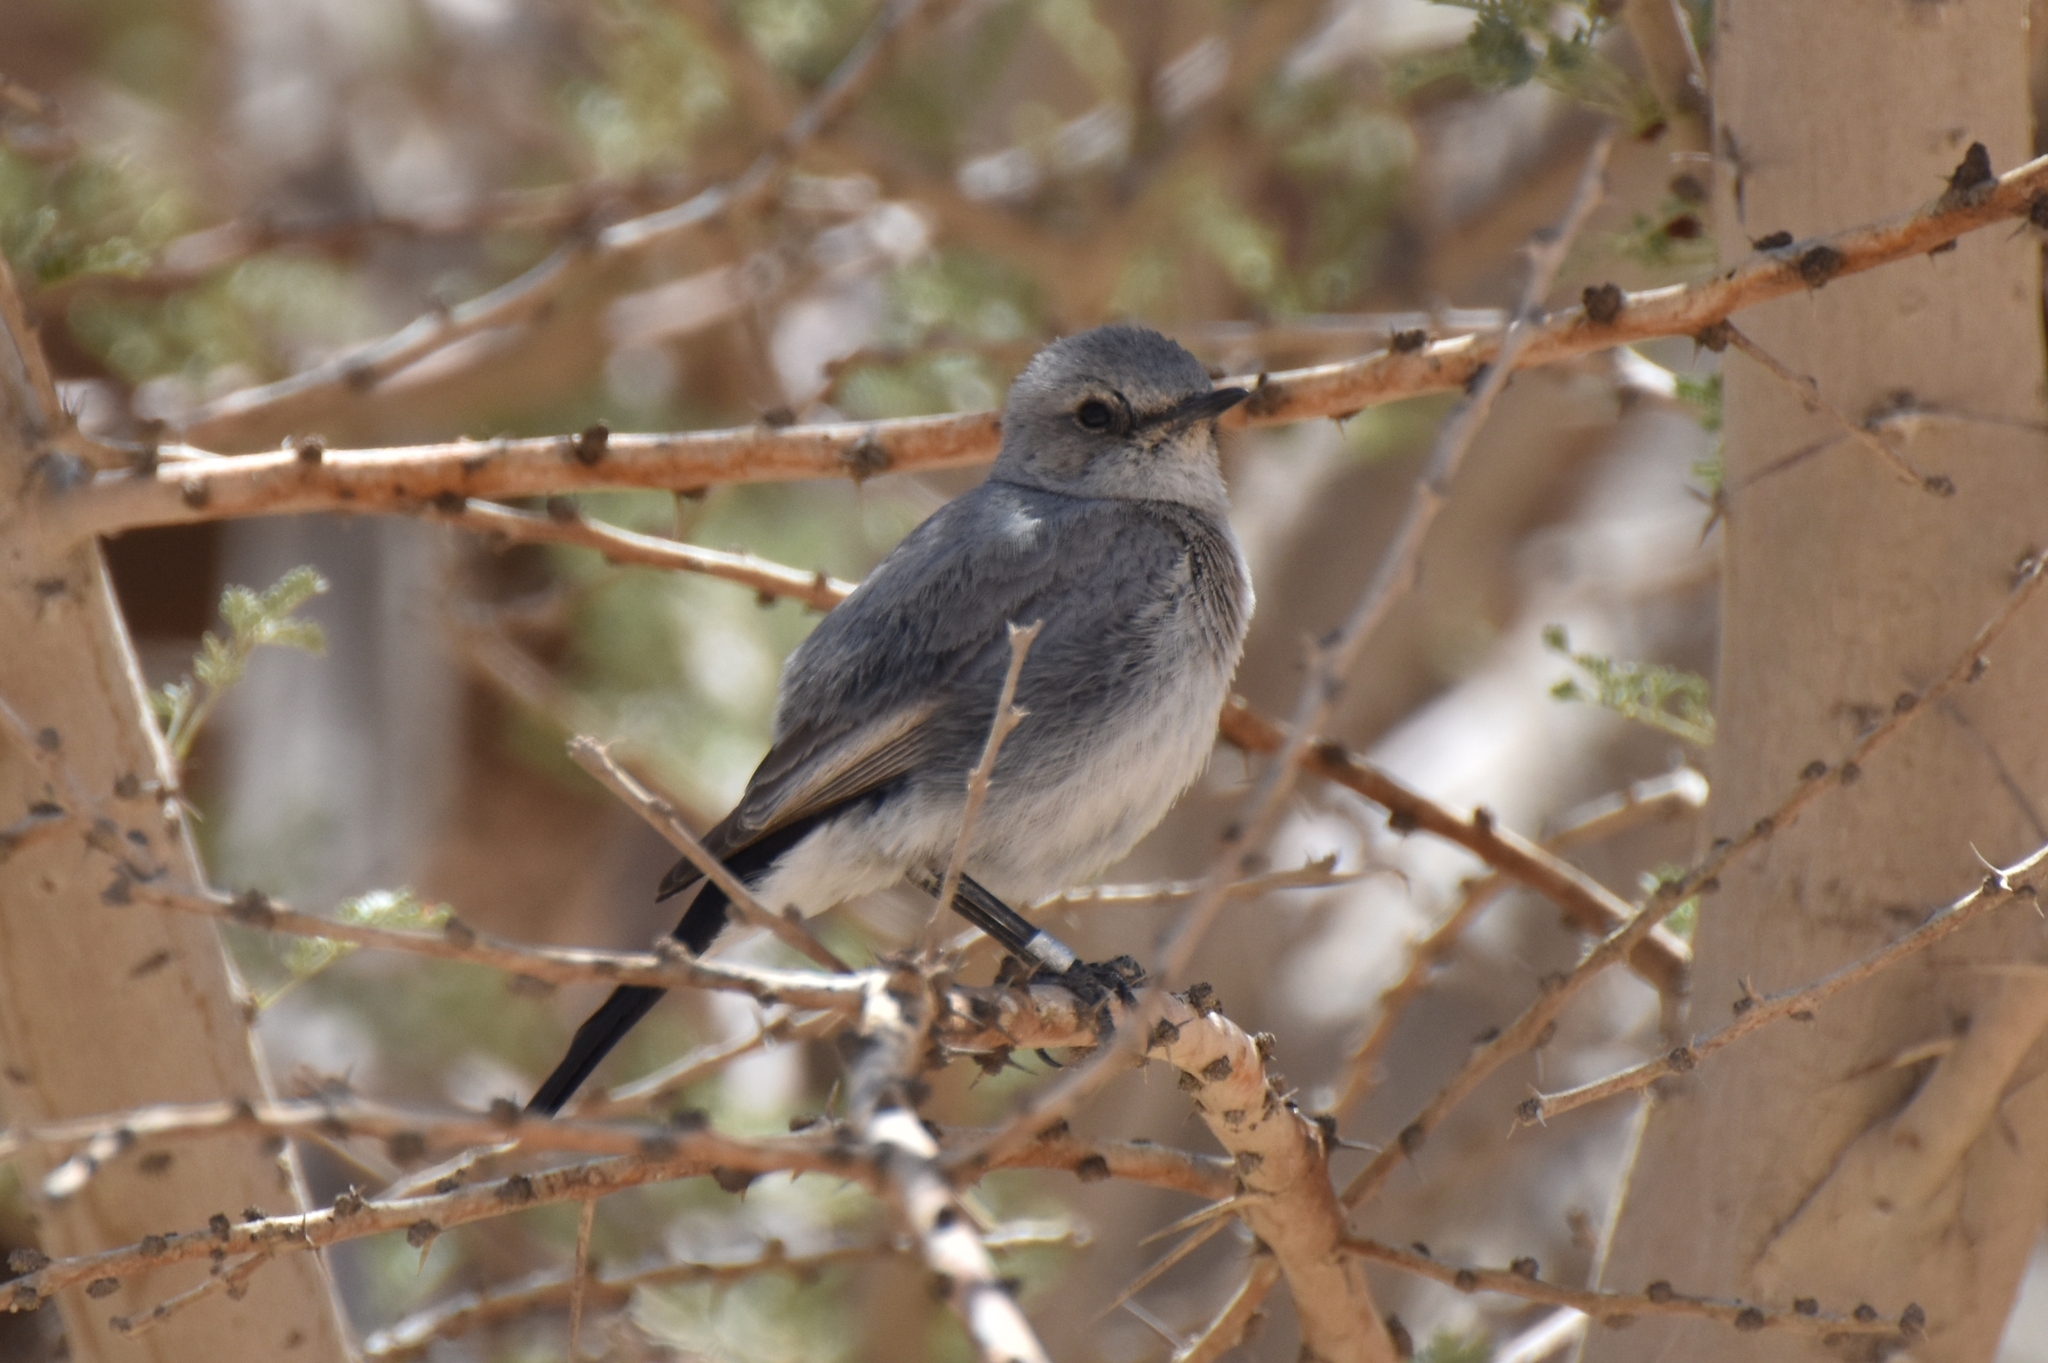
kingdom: Animalia
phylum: Chordata
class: Aves
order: Passeriformes
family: Muscicapidae
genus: Oenanthe
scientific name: Oenanthe melanura
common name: Blackstart
